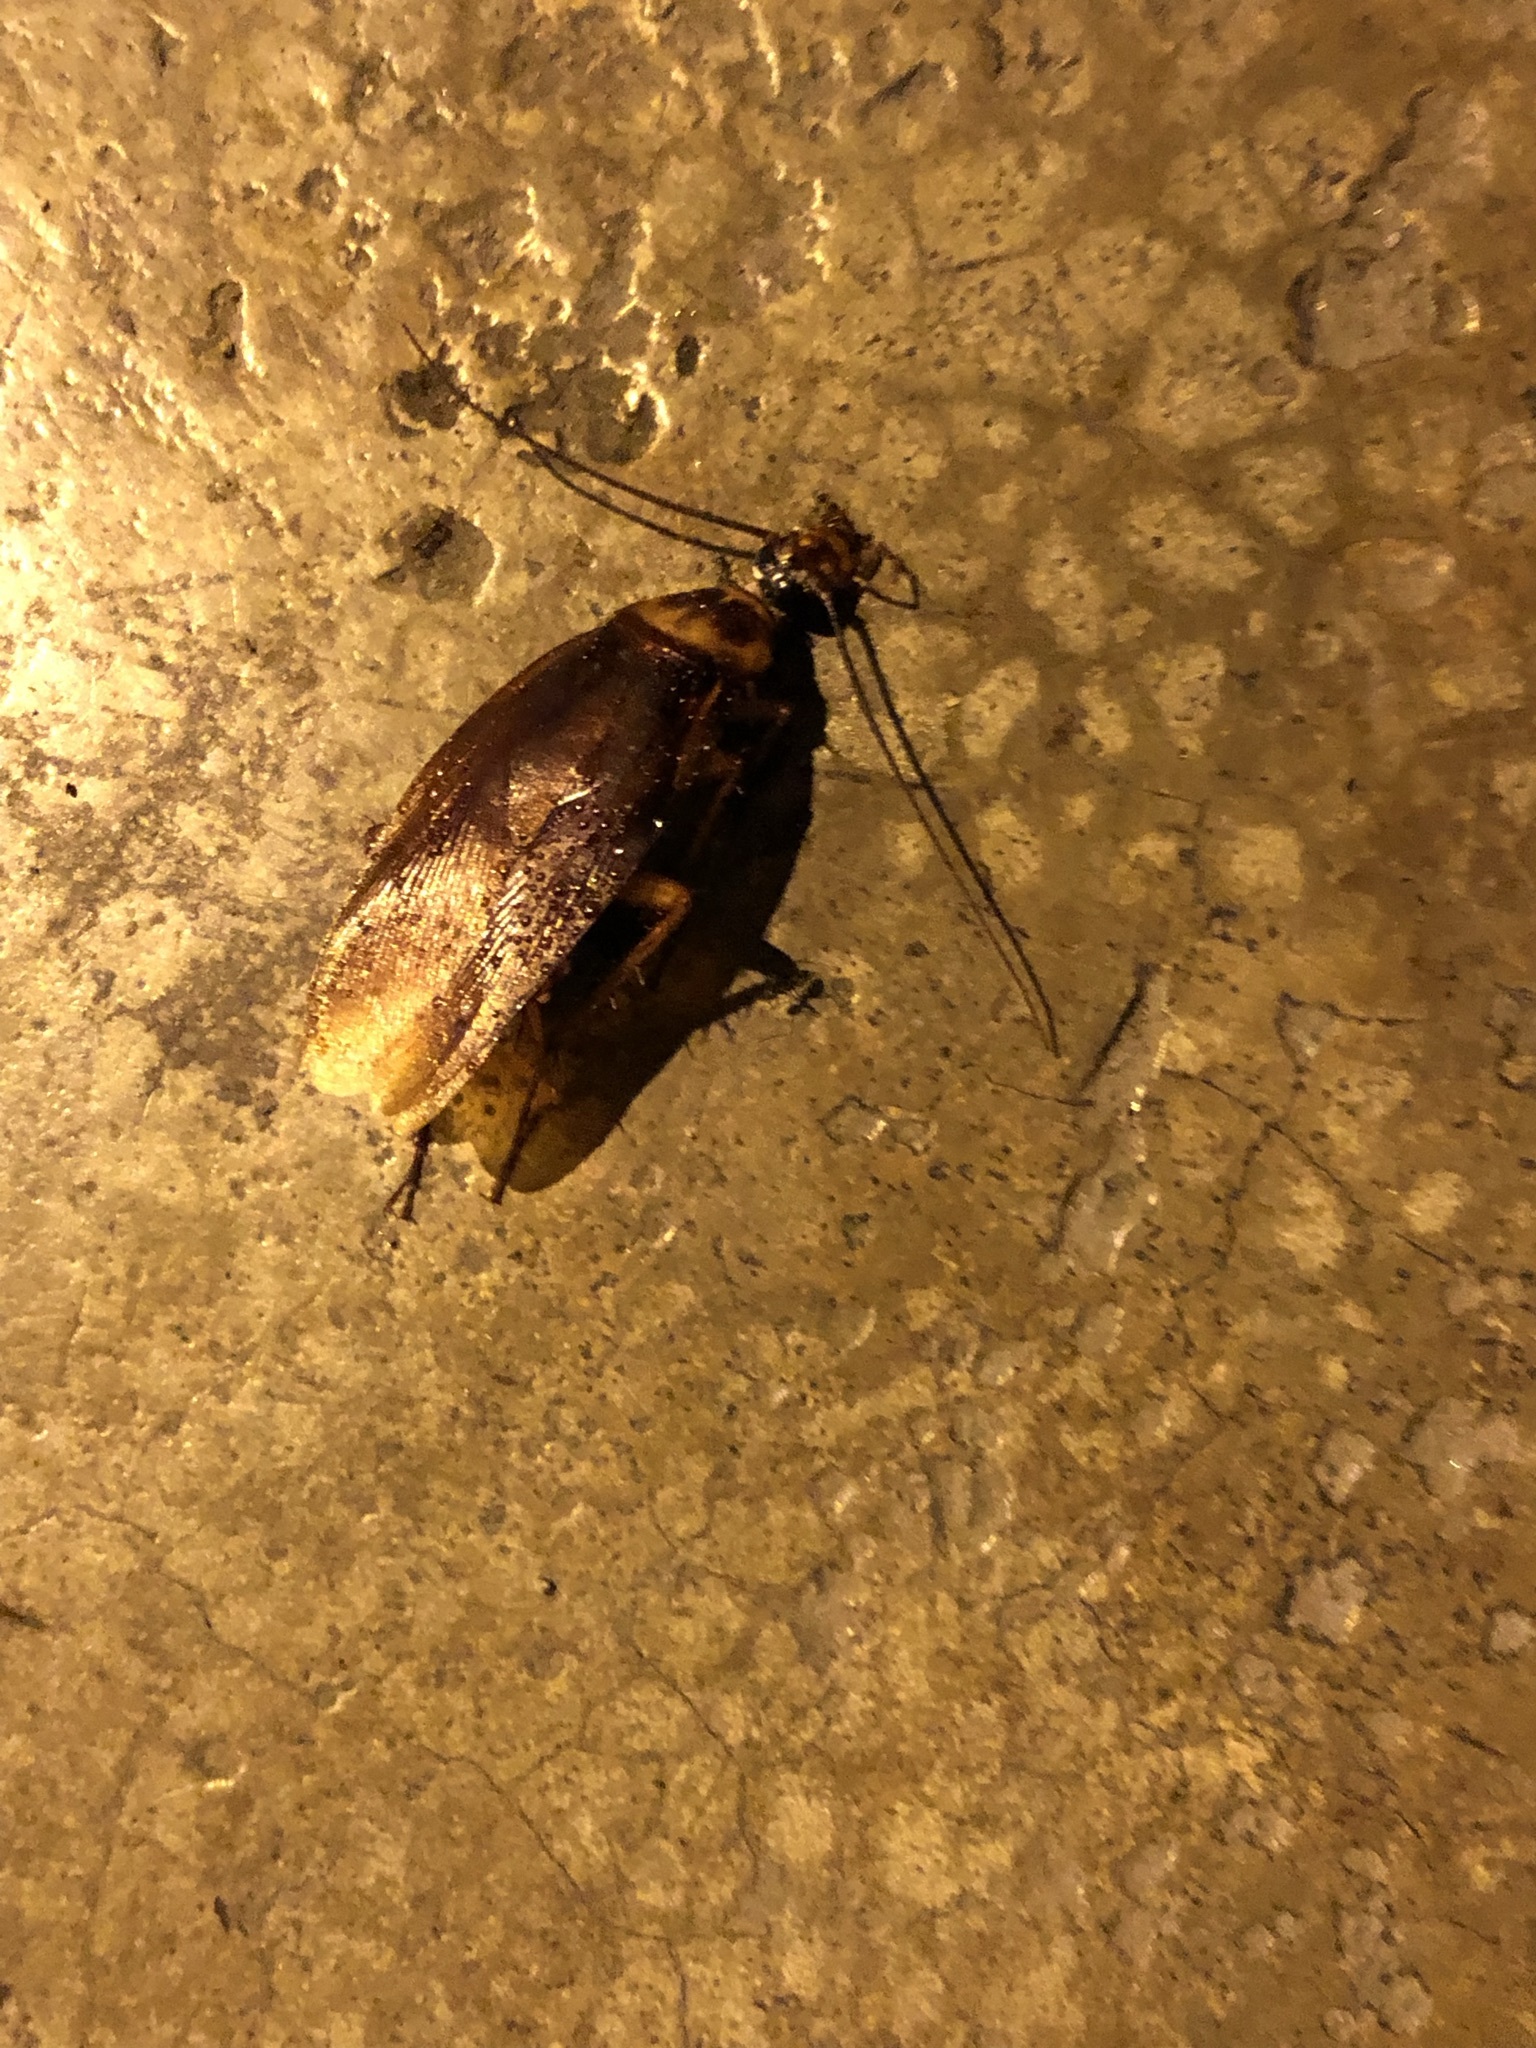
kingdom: Animalia
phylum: Arthropoda
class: Insecta
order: Blattodea
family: Blattidae
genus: Periplaneta
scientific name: Periplaneta americana
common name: American cockroach
